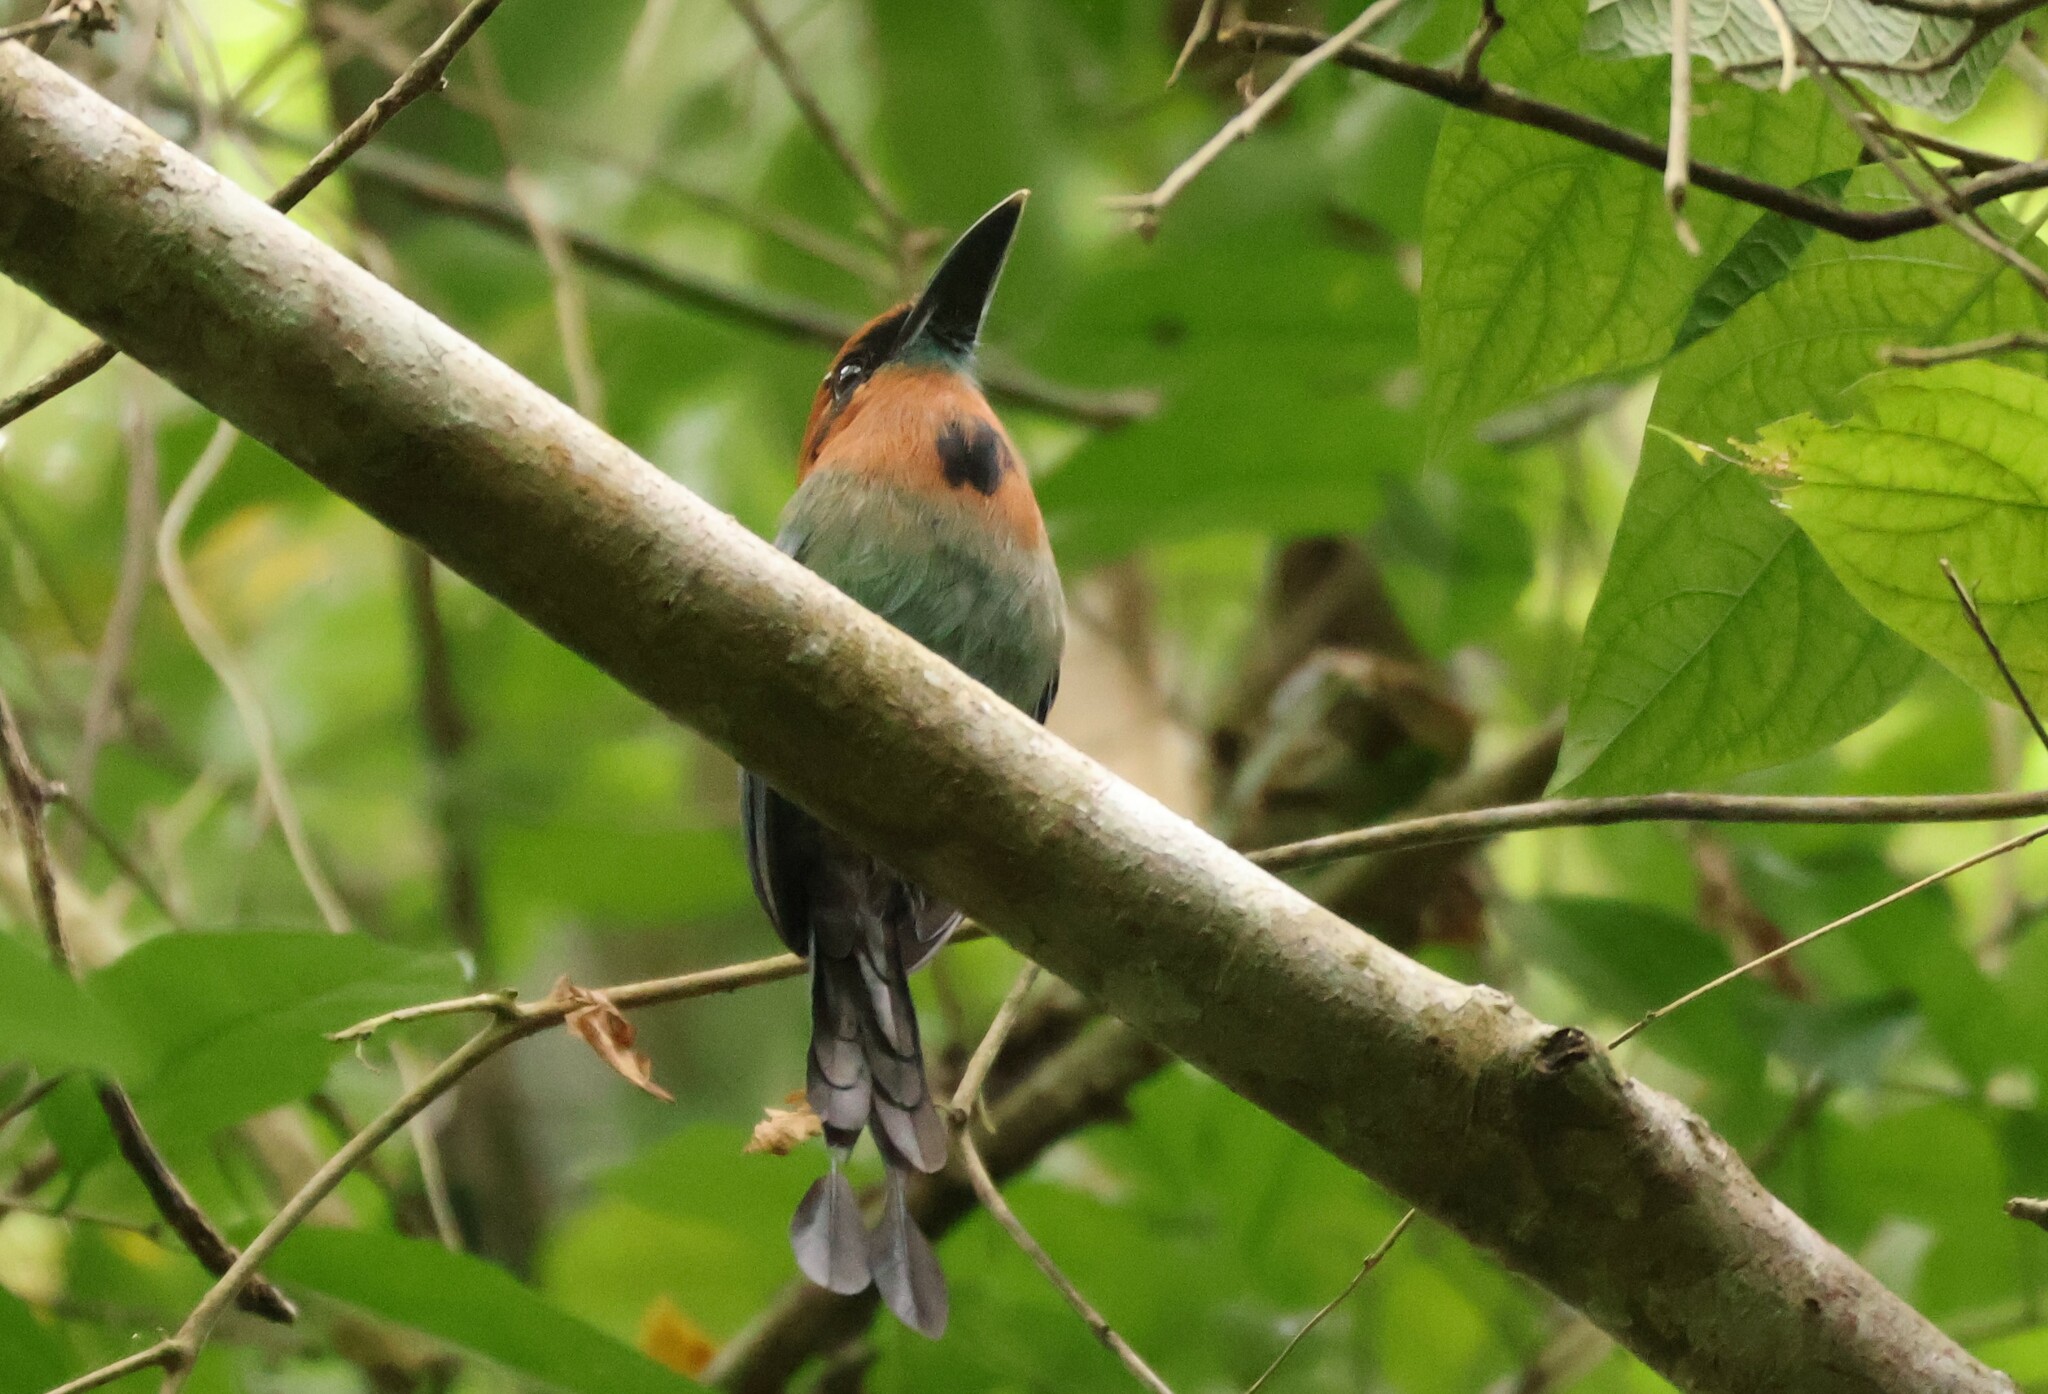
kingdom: Animalia
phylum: Chordata
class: Aves
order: Coraciiformes
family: Momotidae
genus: Electron
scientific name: Electron platyrhynchum
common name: Broad-billed motmot
